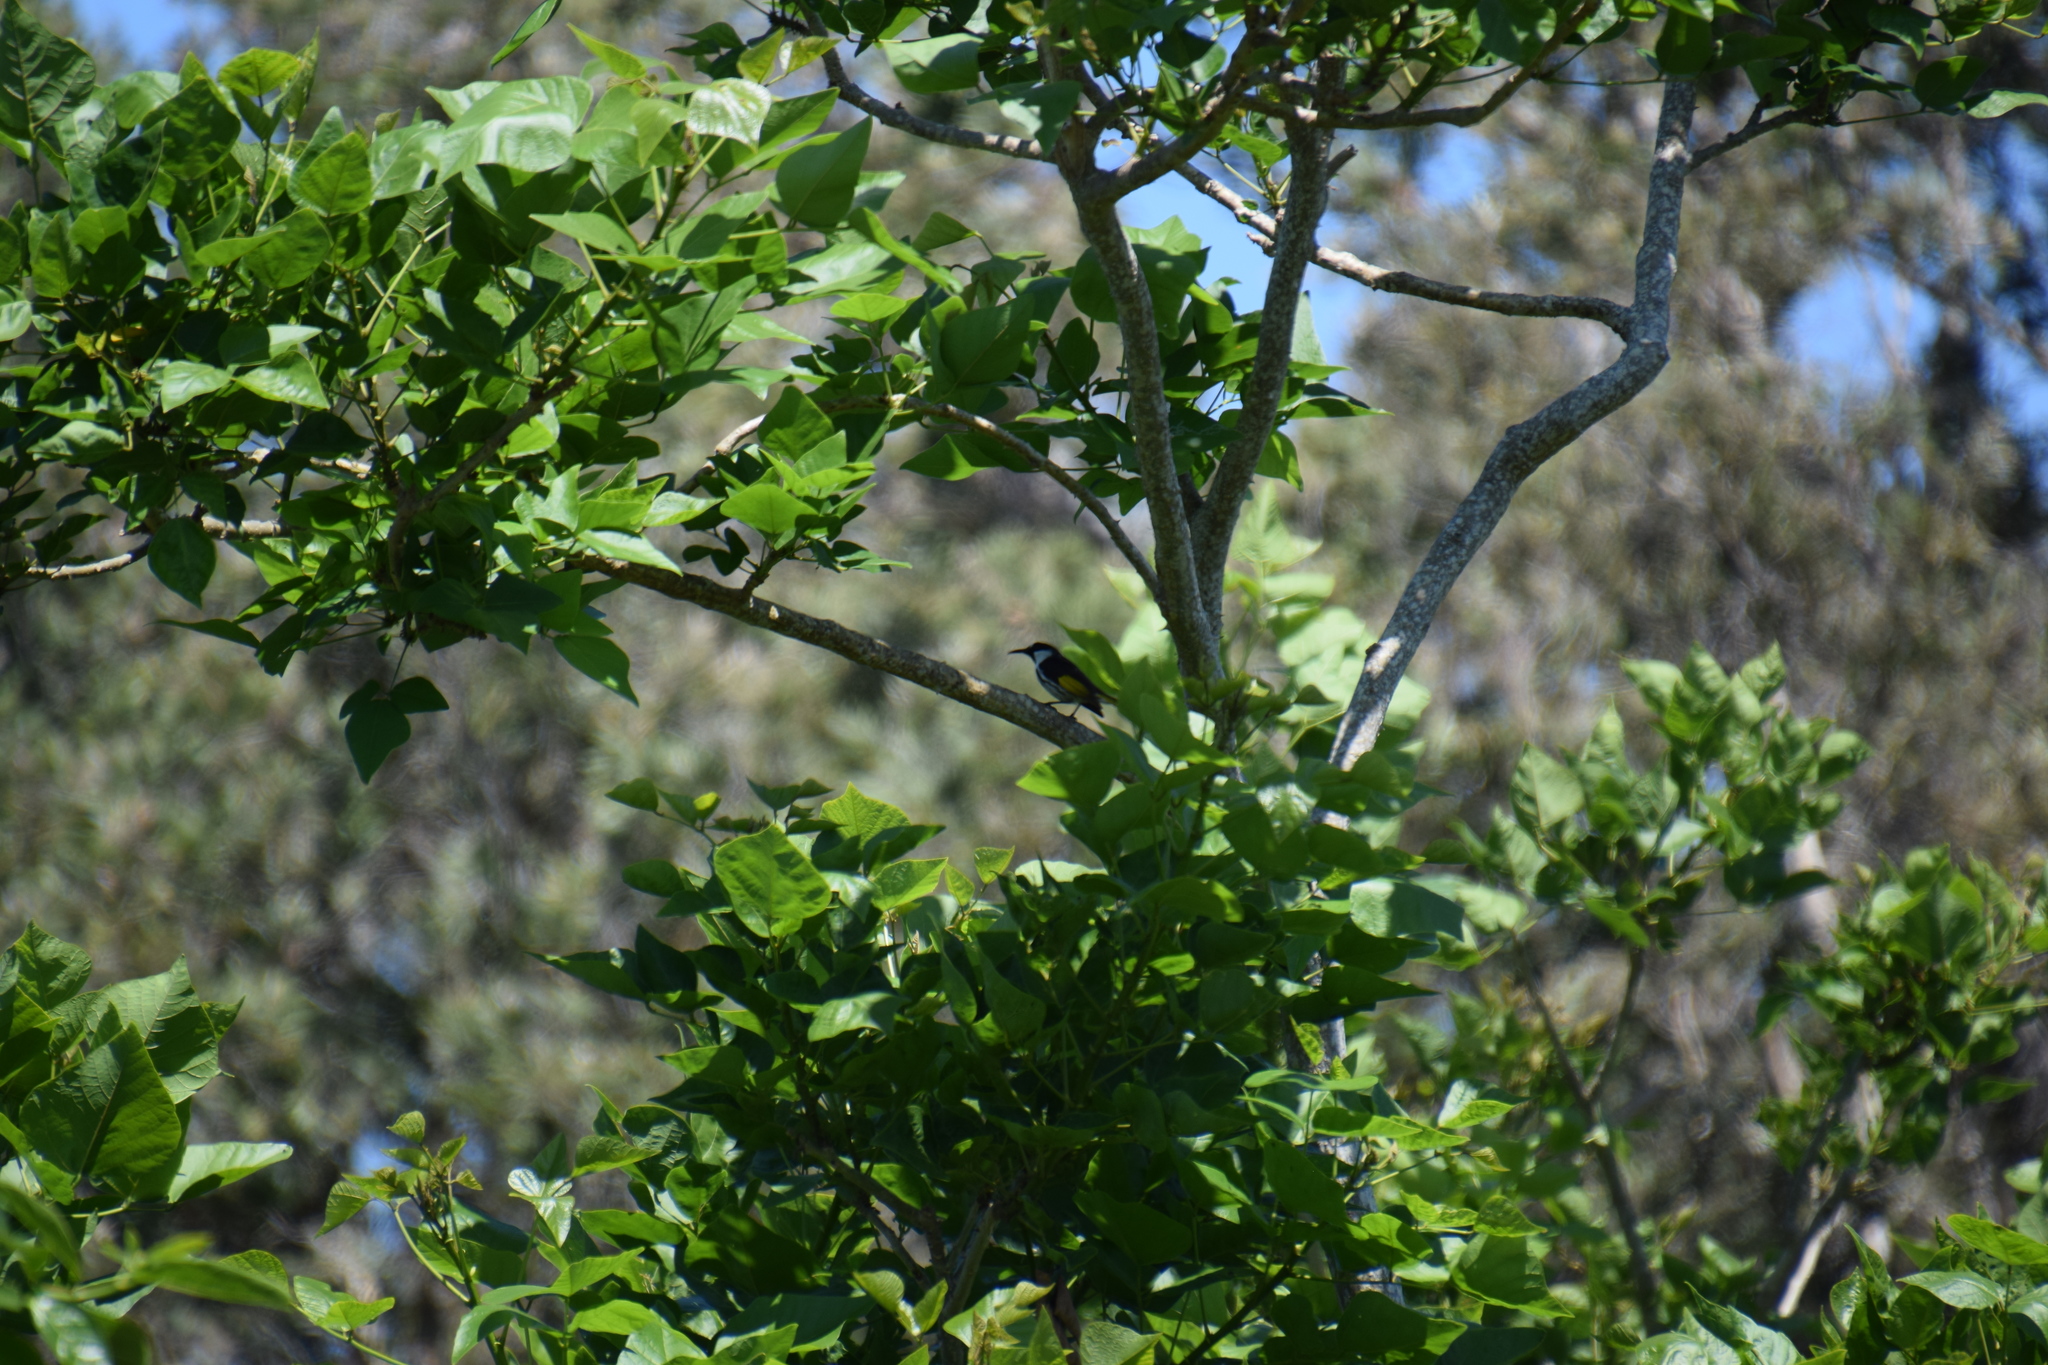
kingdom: Animalia
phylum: Chordata
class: Aves
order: Passeriformes
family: Meliphagidae
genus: Phylidonyris
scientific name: Phylidonyris niger
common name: White-cheeked honeyeater
